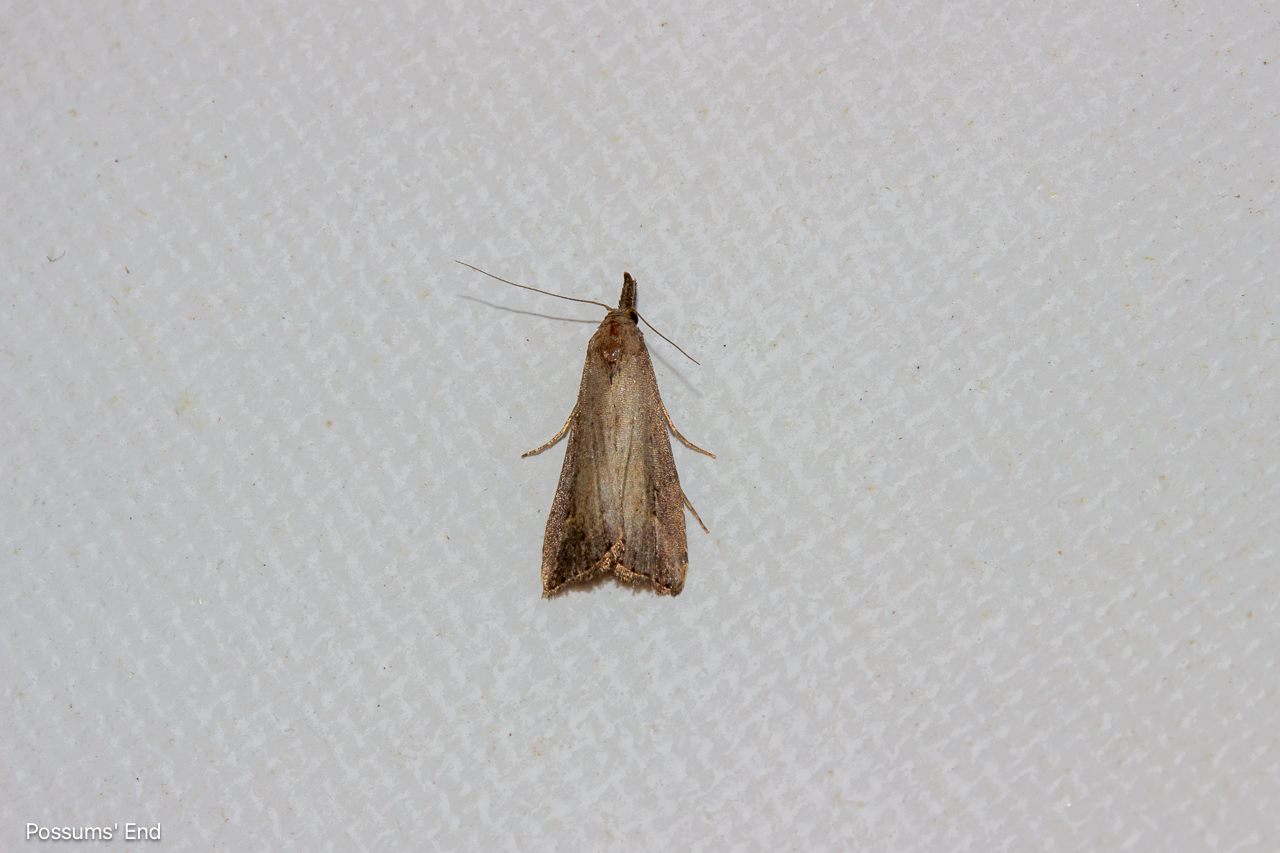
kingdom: Animalia
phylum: Arthropoda
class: Insecta
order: Lepidoptera
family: Erebidae
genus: Schrankia
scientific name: Schrankia costaestrigalis
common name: Pinion-streaked snout
